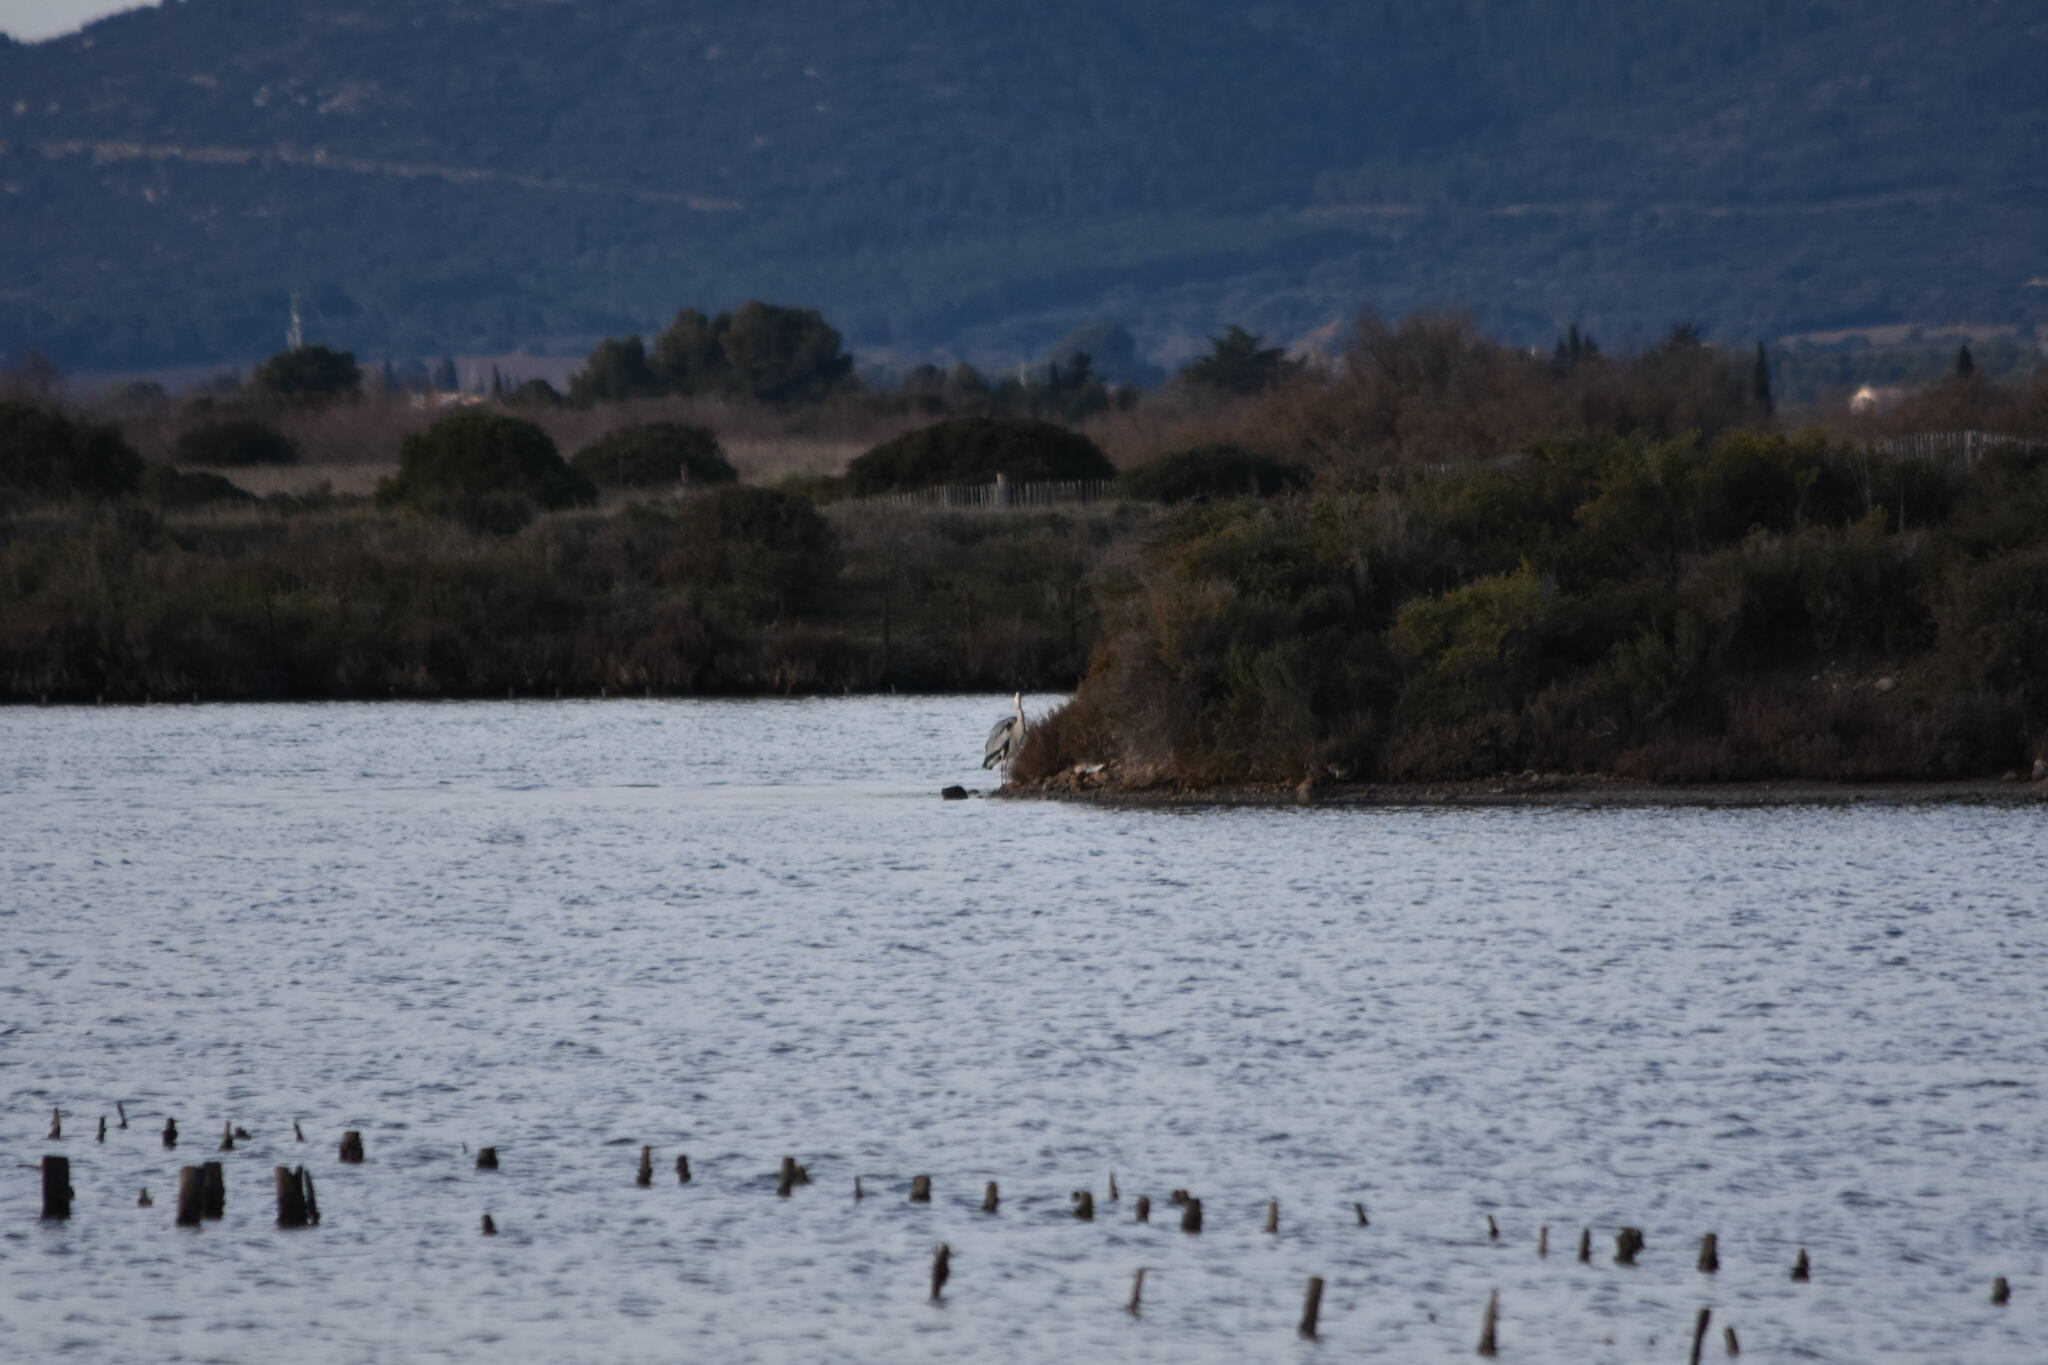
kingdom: Animalia
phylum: Chordata
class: Aves
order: Pelecaniformes
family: Ardeidae
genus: Ardea
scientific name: Ardea cinerea
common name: Grey heron
